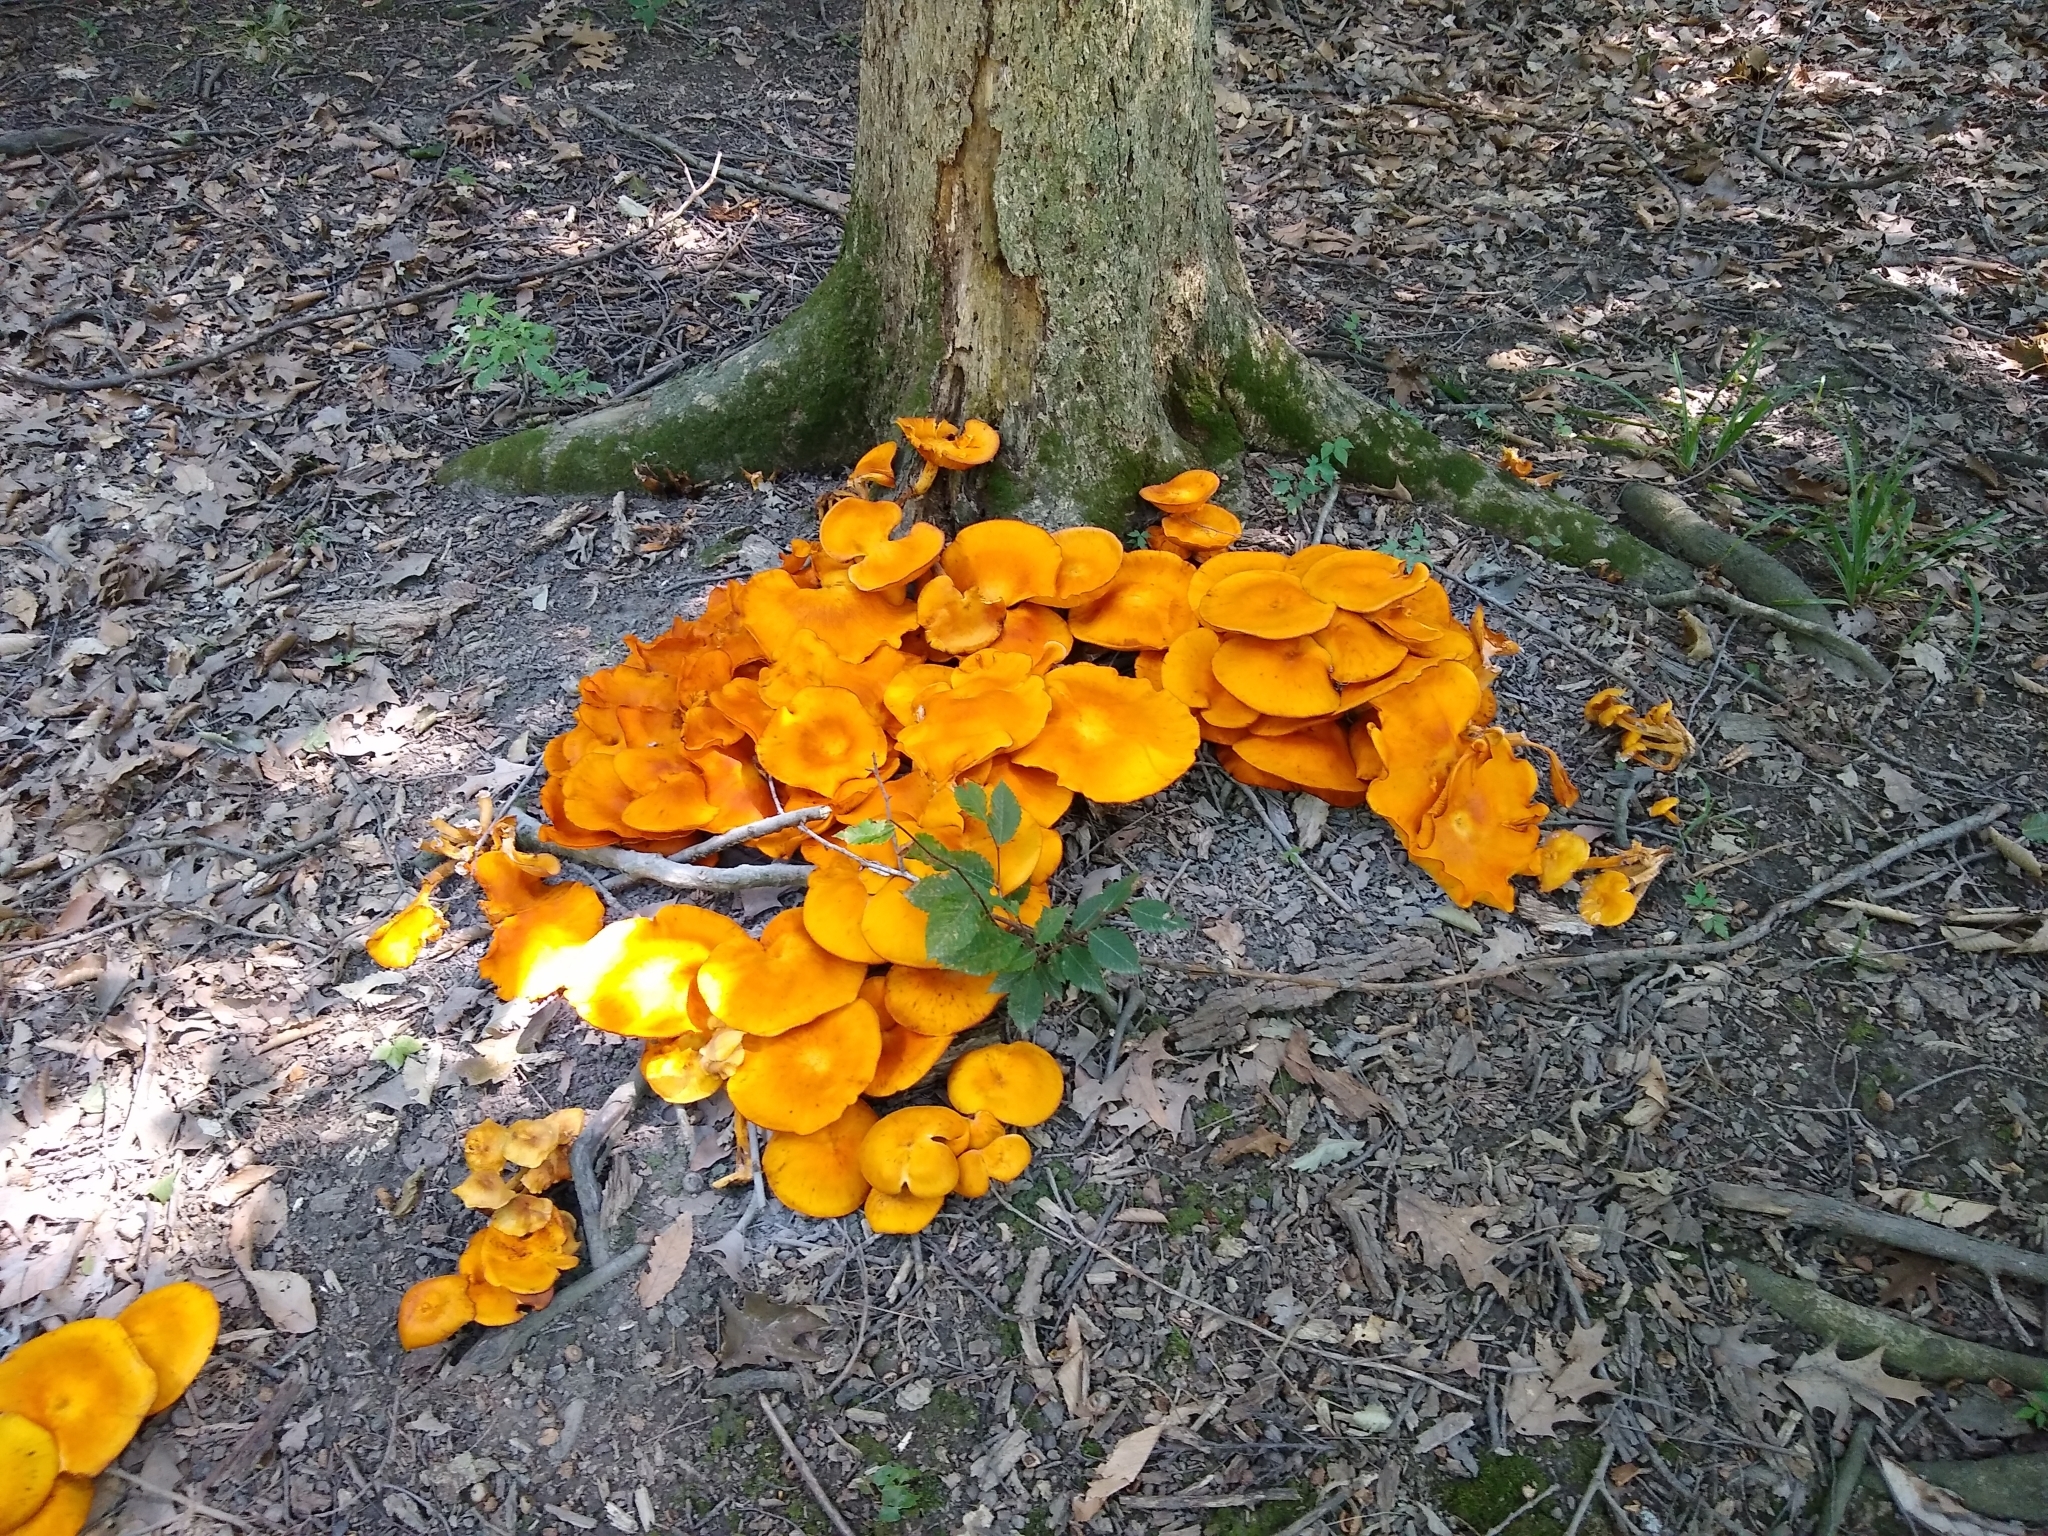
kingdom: Fungi
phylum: Basidiomycota
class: Agaricomycetes
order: Agaricales
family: Omphalotaceae
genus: Omphalotus
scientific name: Omphalotus illudens
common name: Jack o lantern
